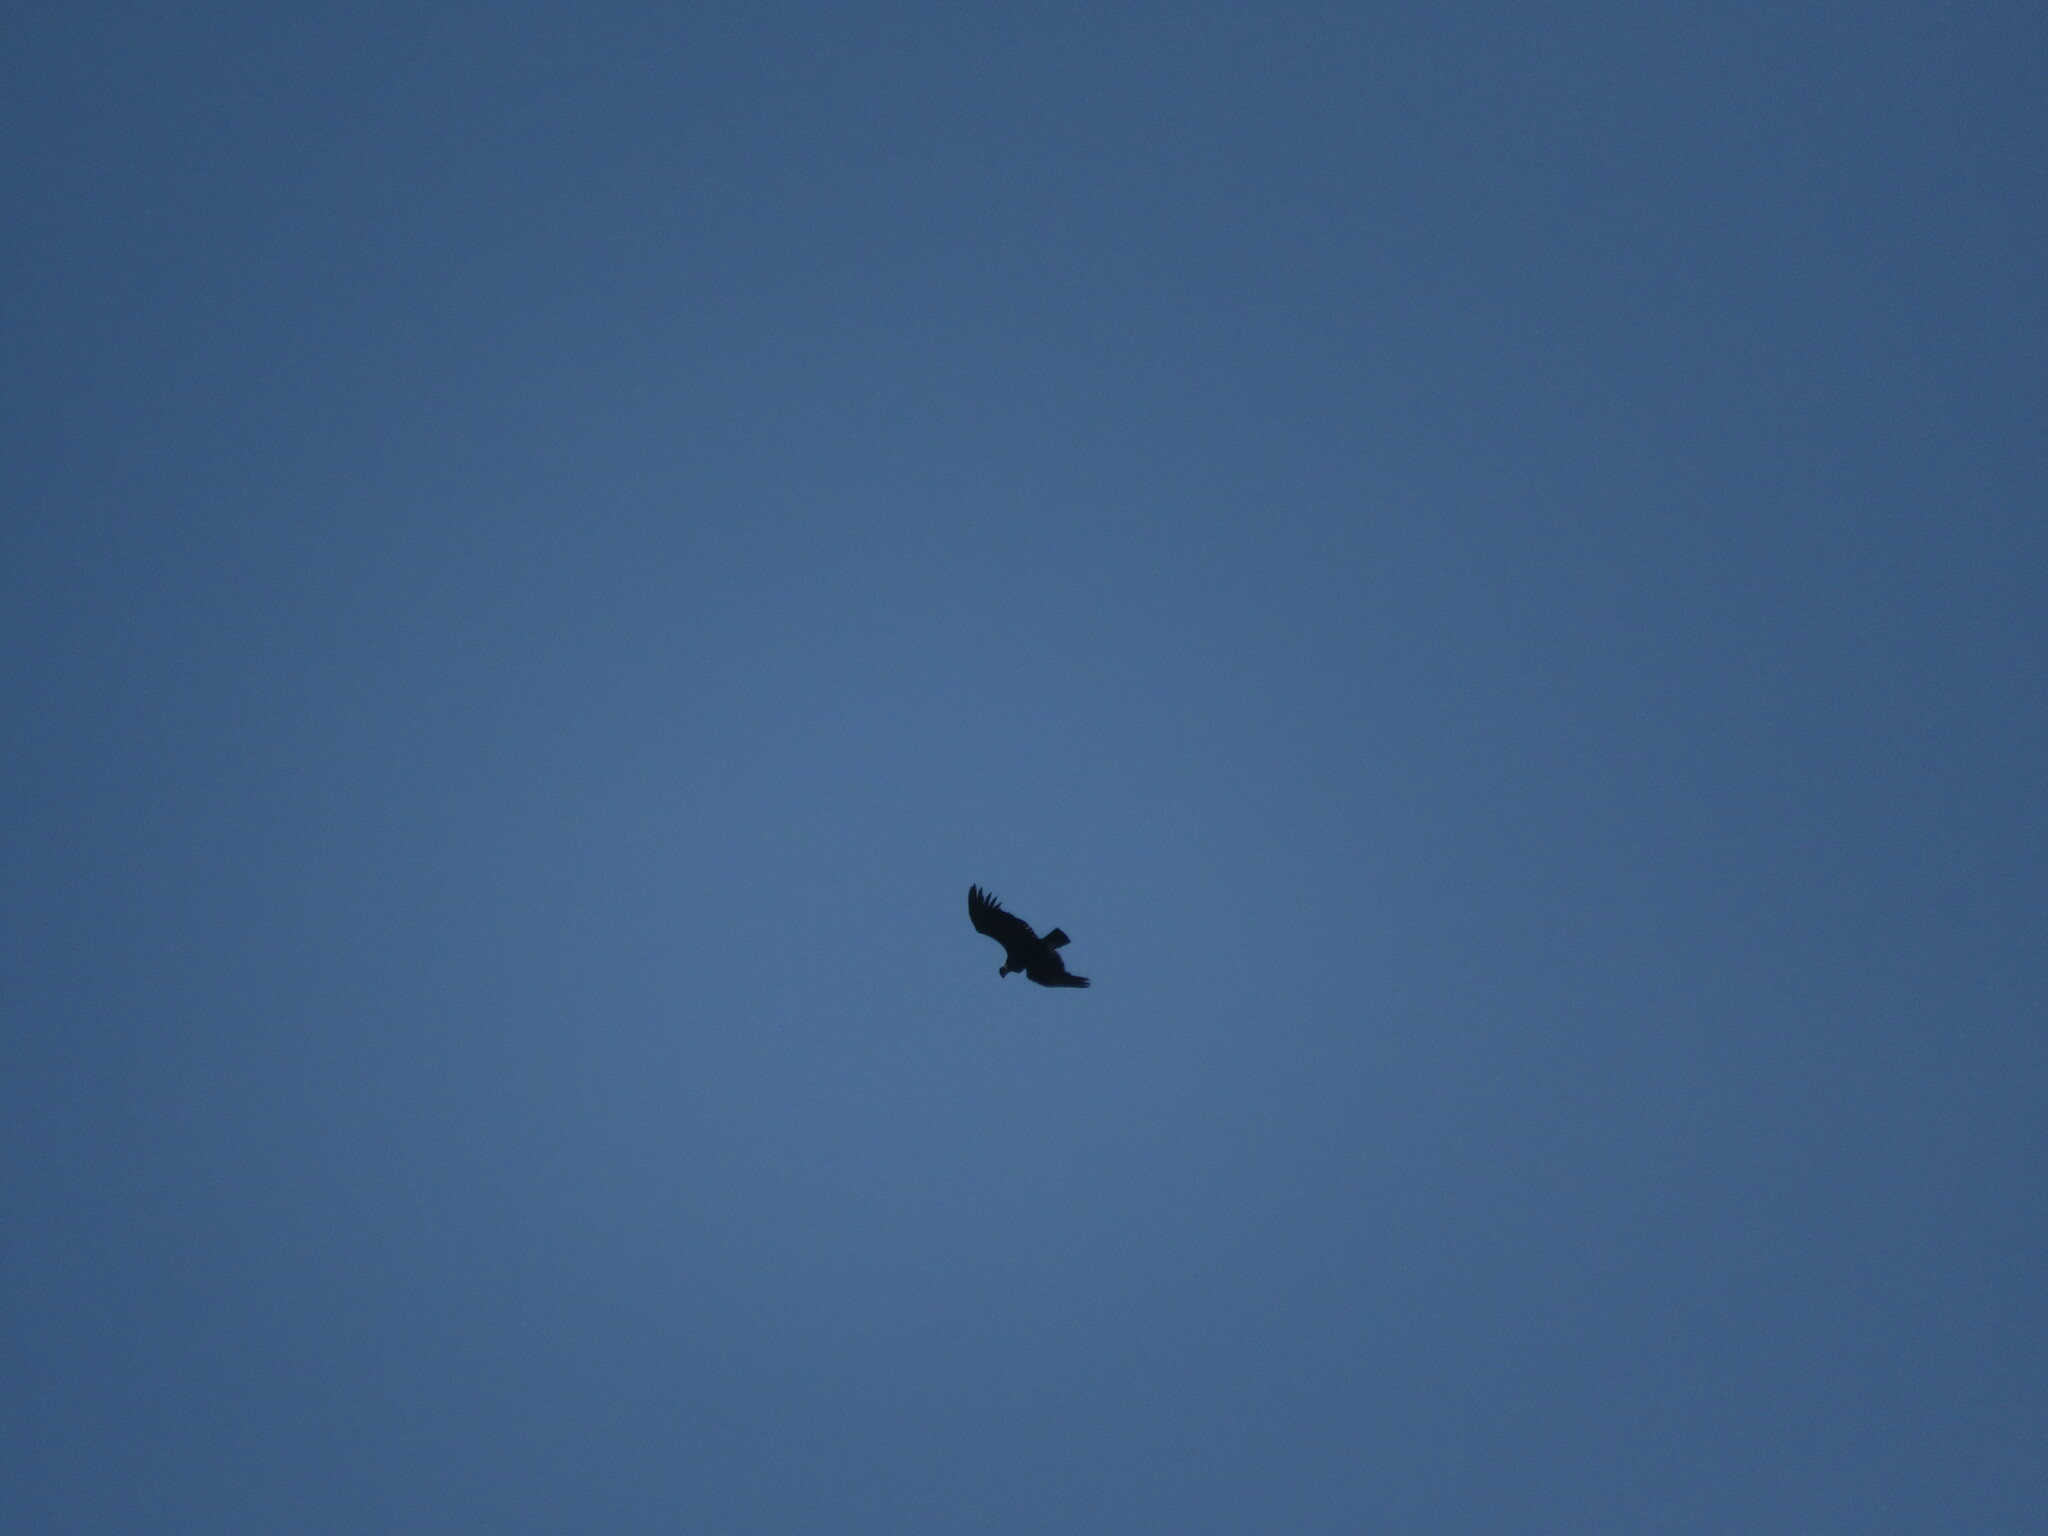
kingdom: Animalia
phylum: Chordata
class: Aves
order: Accipitriformes
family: Cathartidae
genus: Vultur
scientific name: Vultur gryphus
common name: Andean condor
